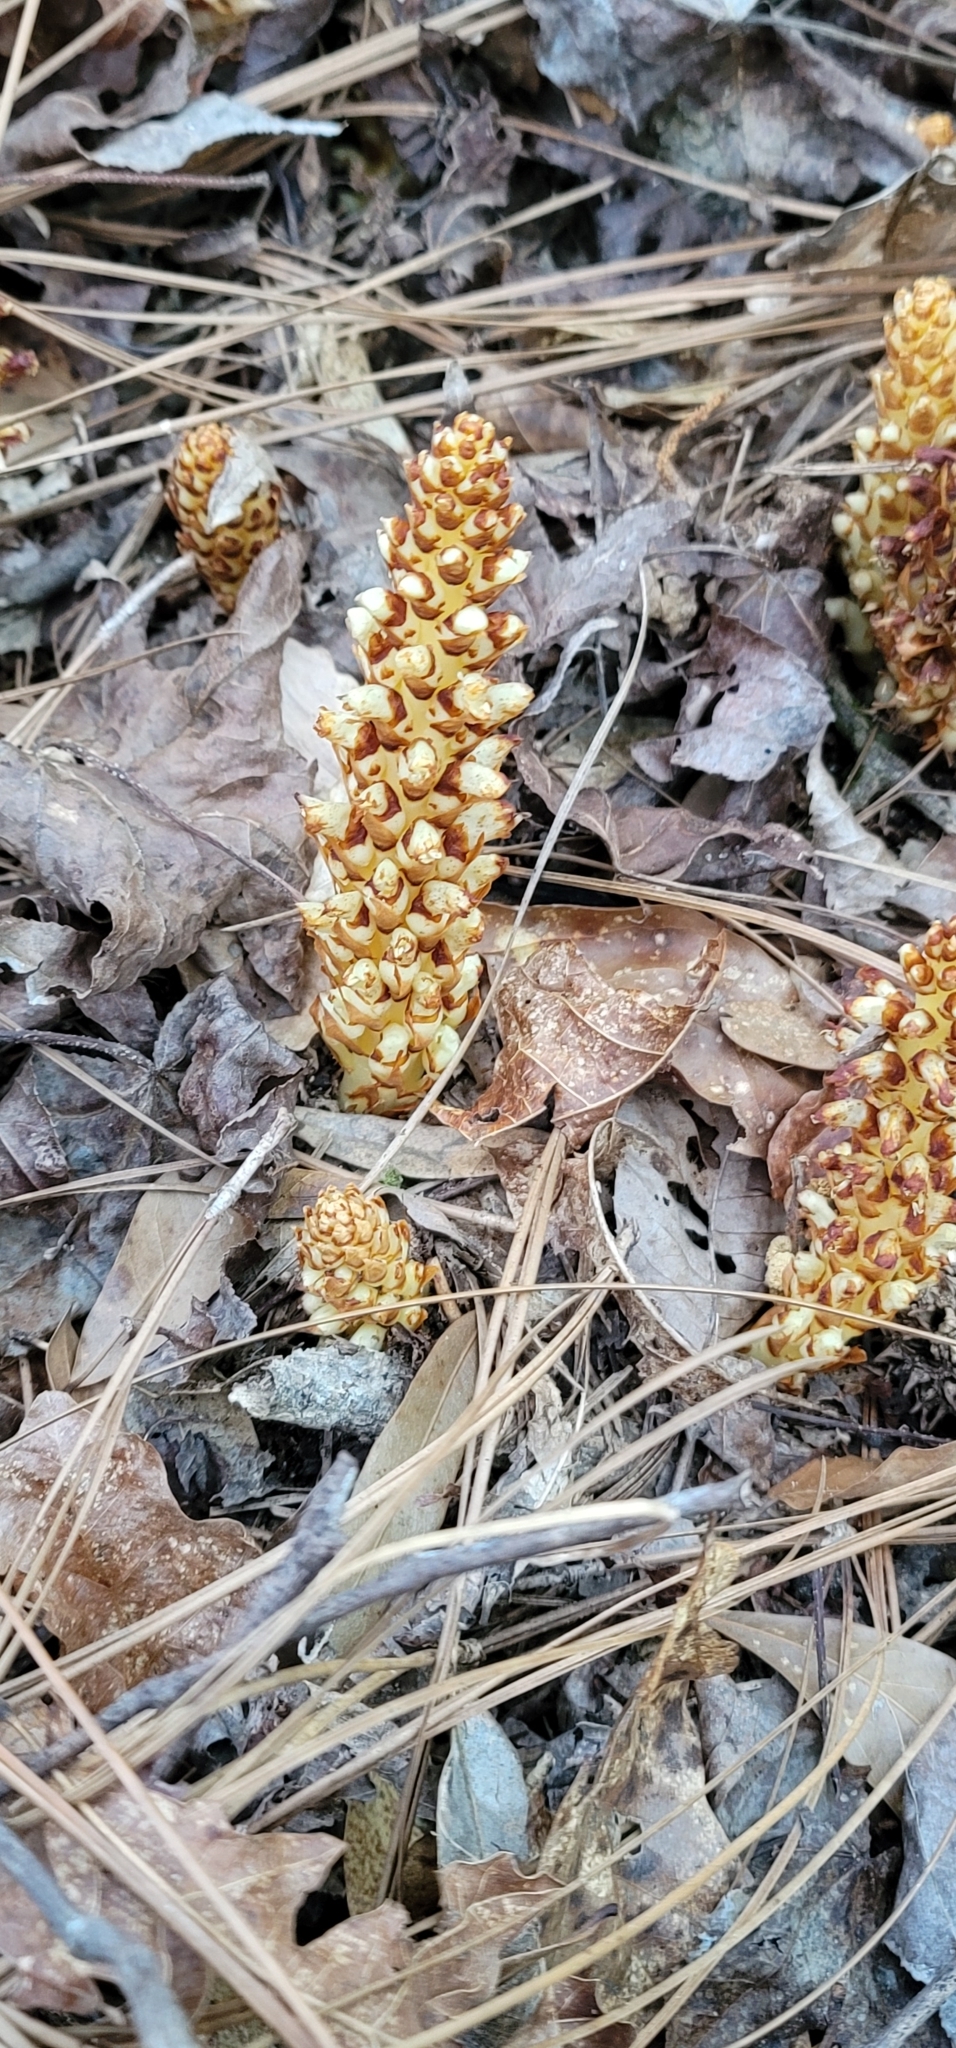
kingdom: Plantae
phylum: Tracheophyta
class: Magnoliopsida
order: Lamiales
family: Orobanchaceae
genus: Conopholis
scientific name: Conopholis americana
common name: American cancer-root
